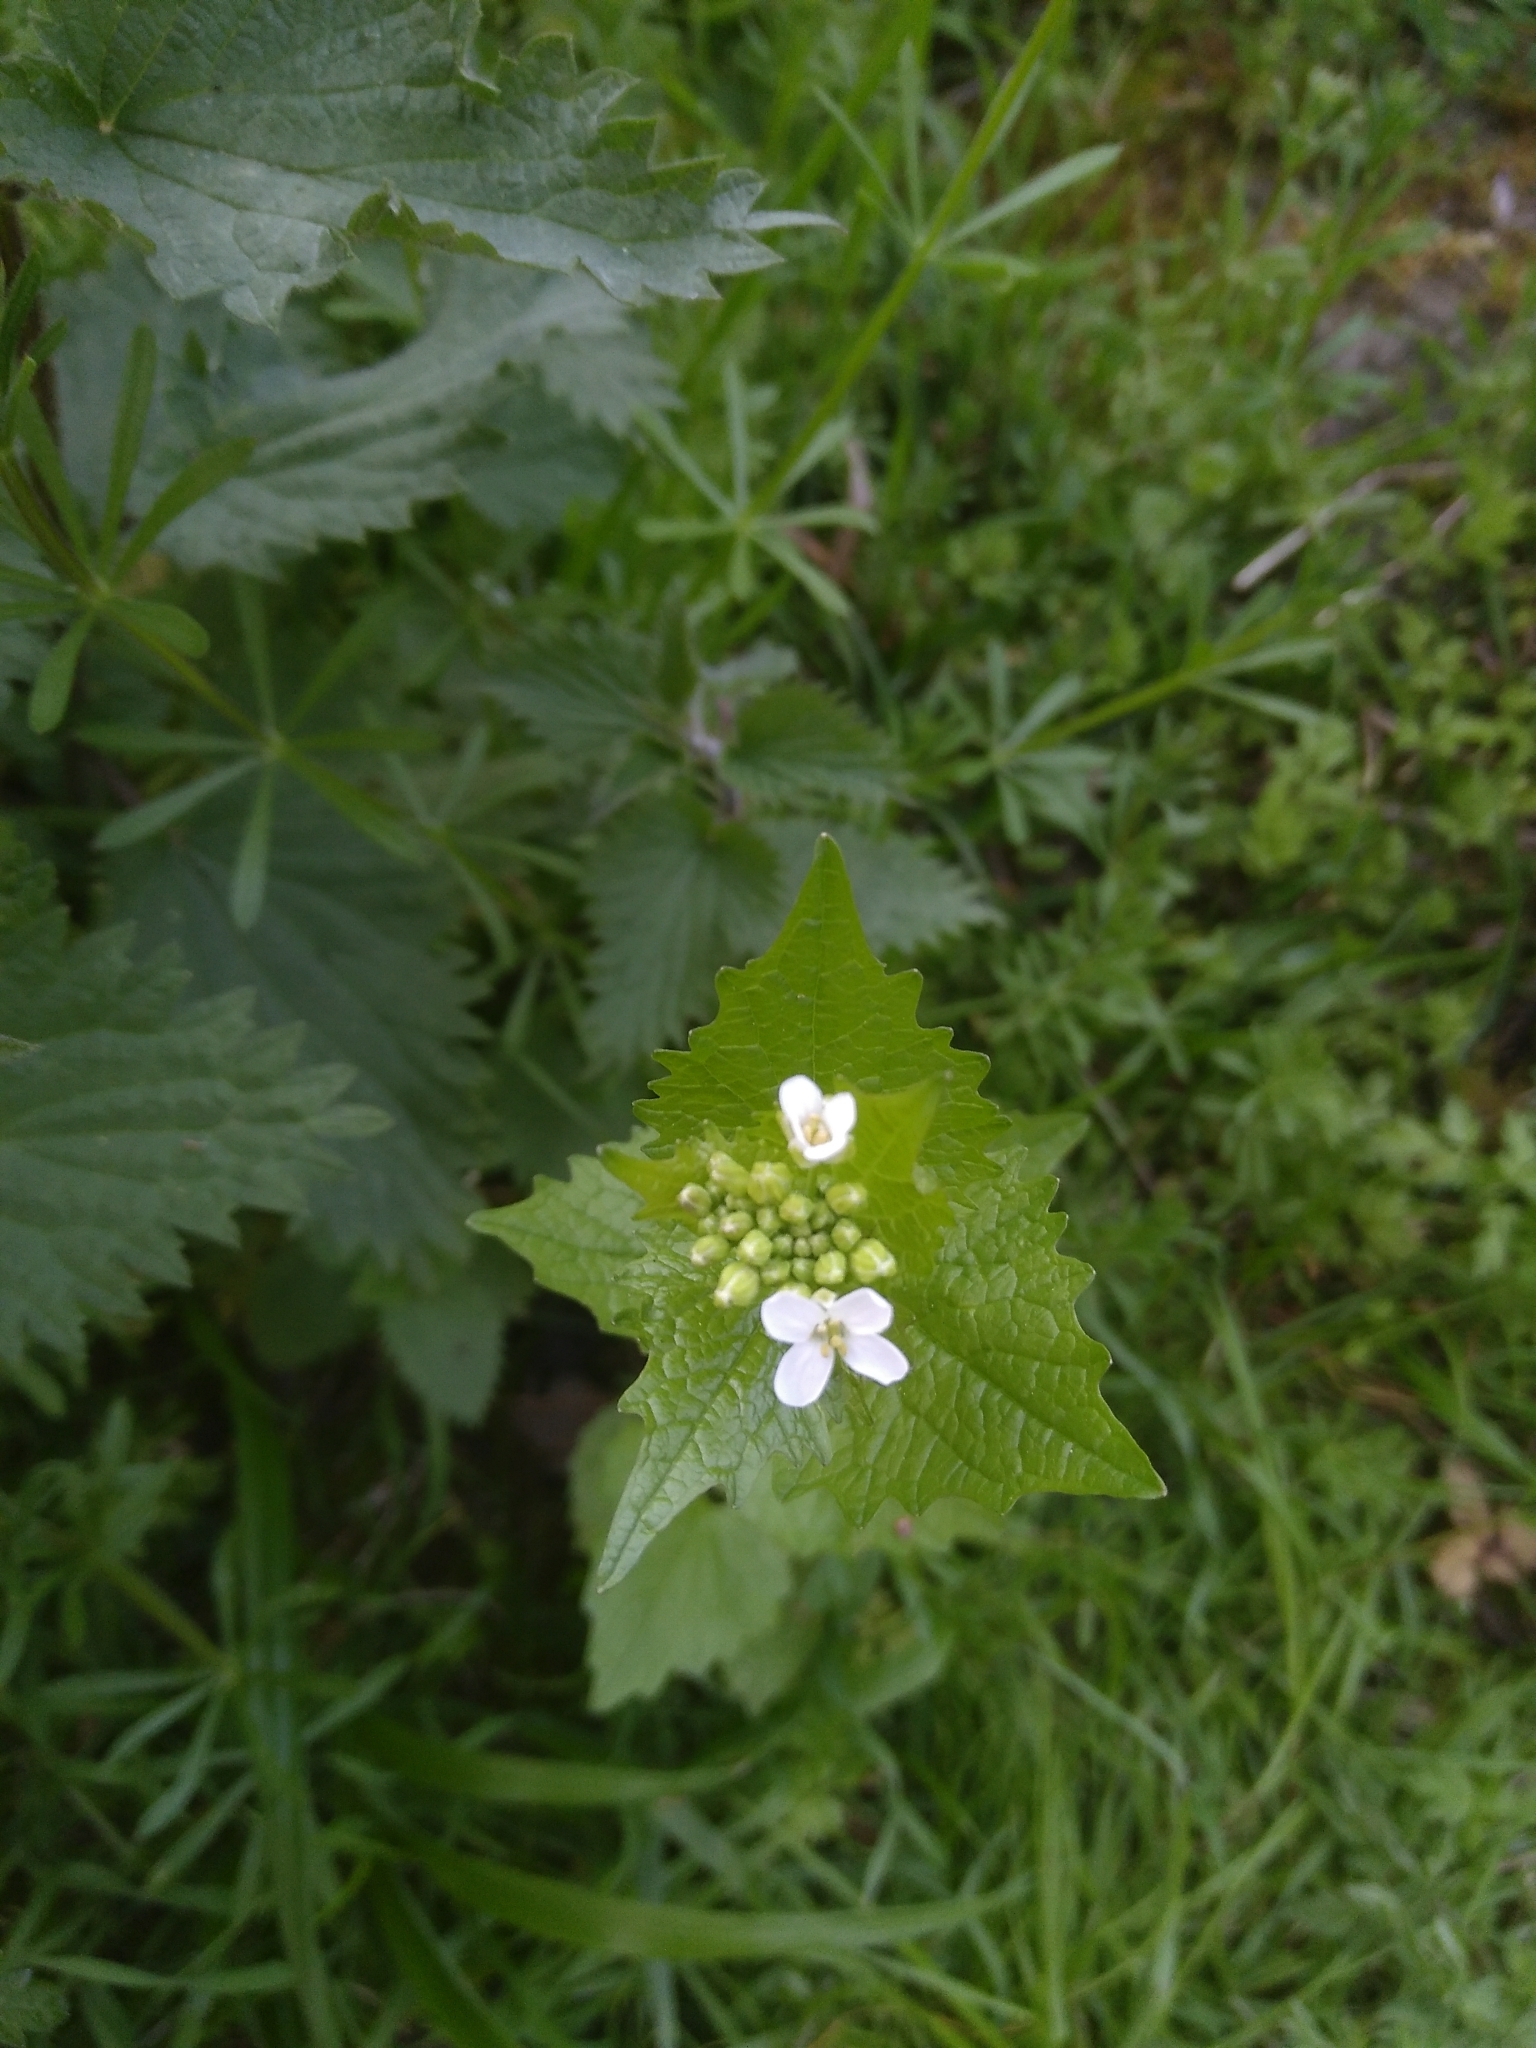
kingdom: Plantae
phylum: Tracheophyta
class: Magnoliopsida
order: Brassicales
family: Brassicaceae
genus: Alliaria
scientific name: Alliaria petiolata
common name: Garlic mustard
